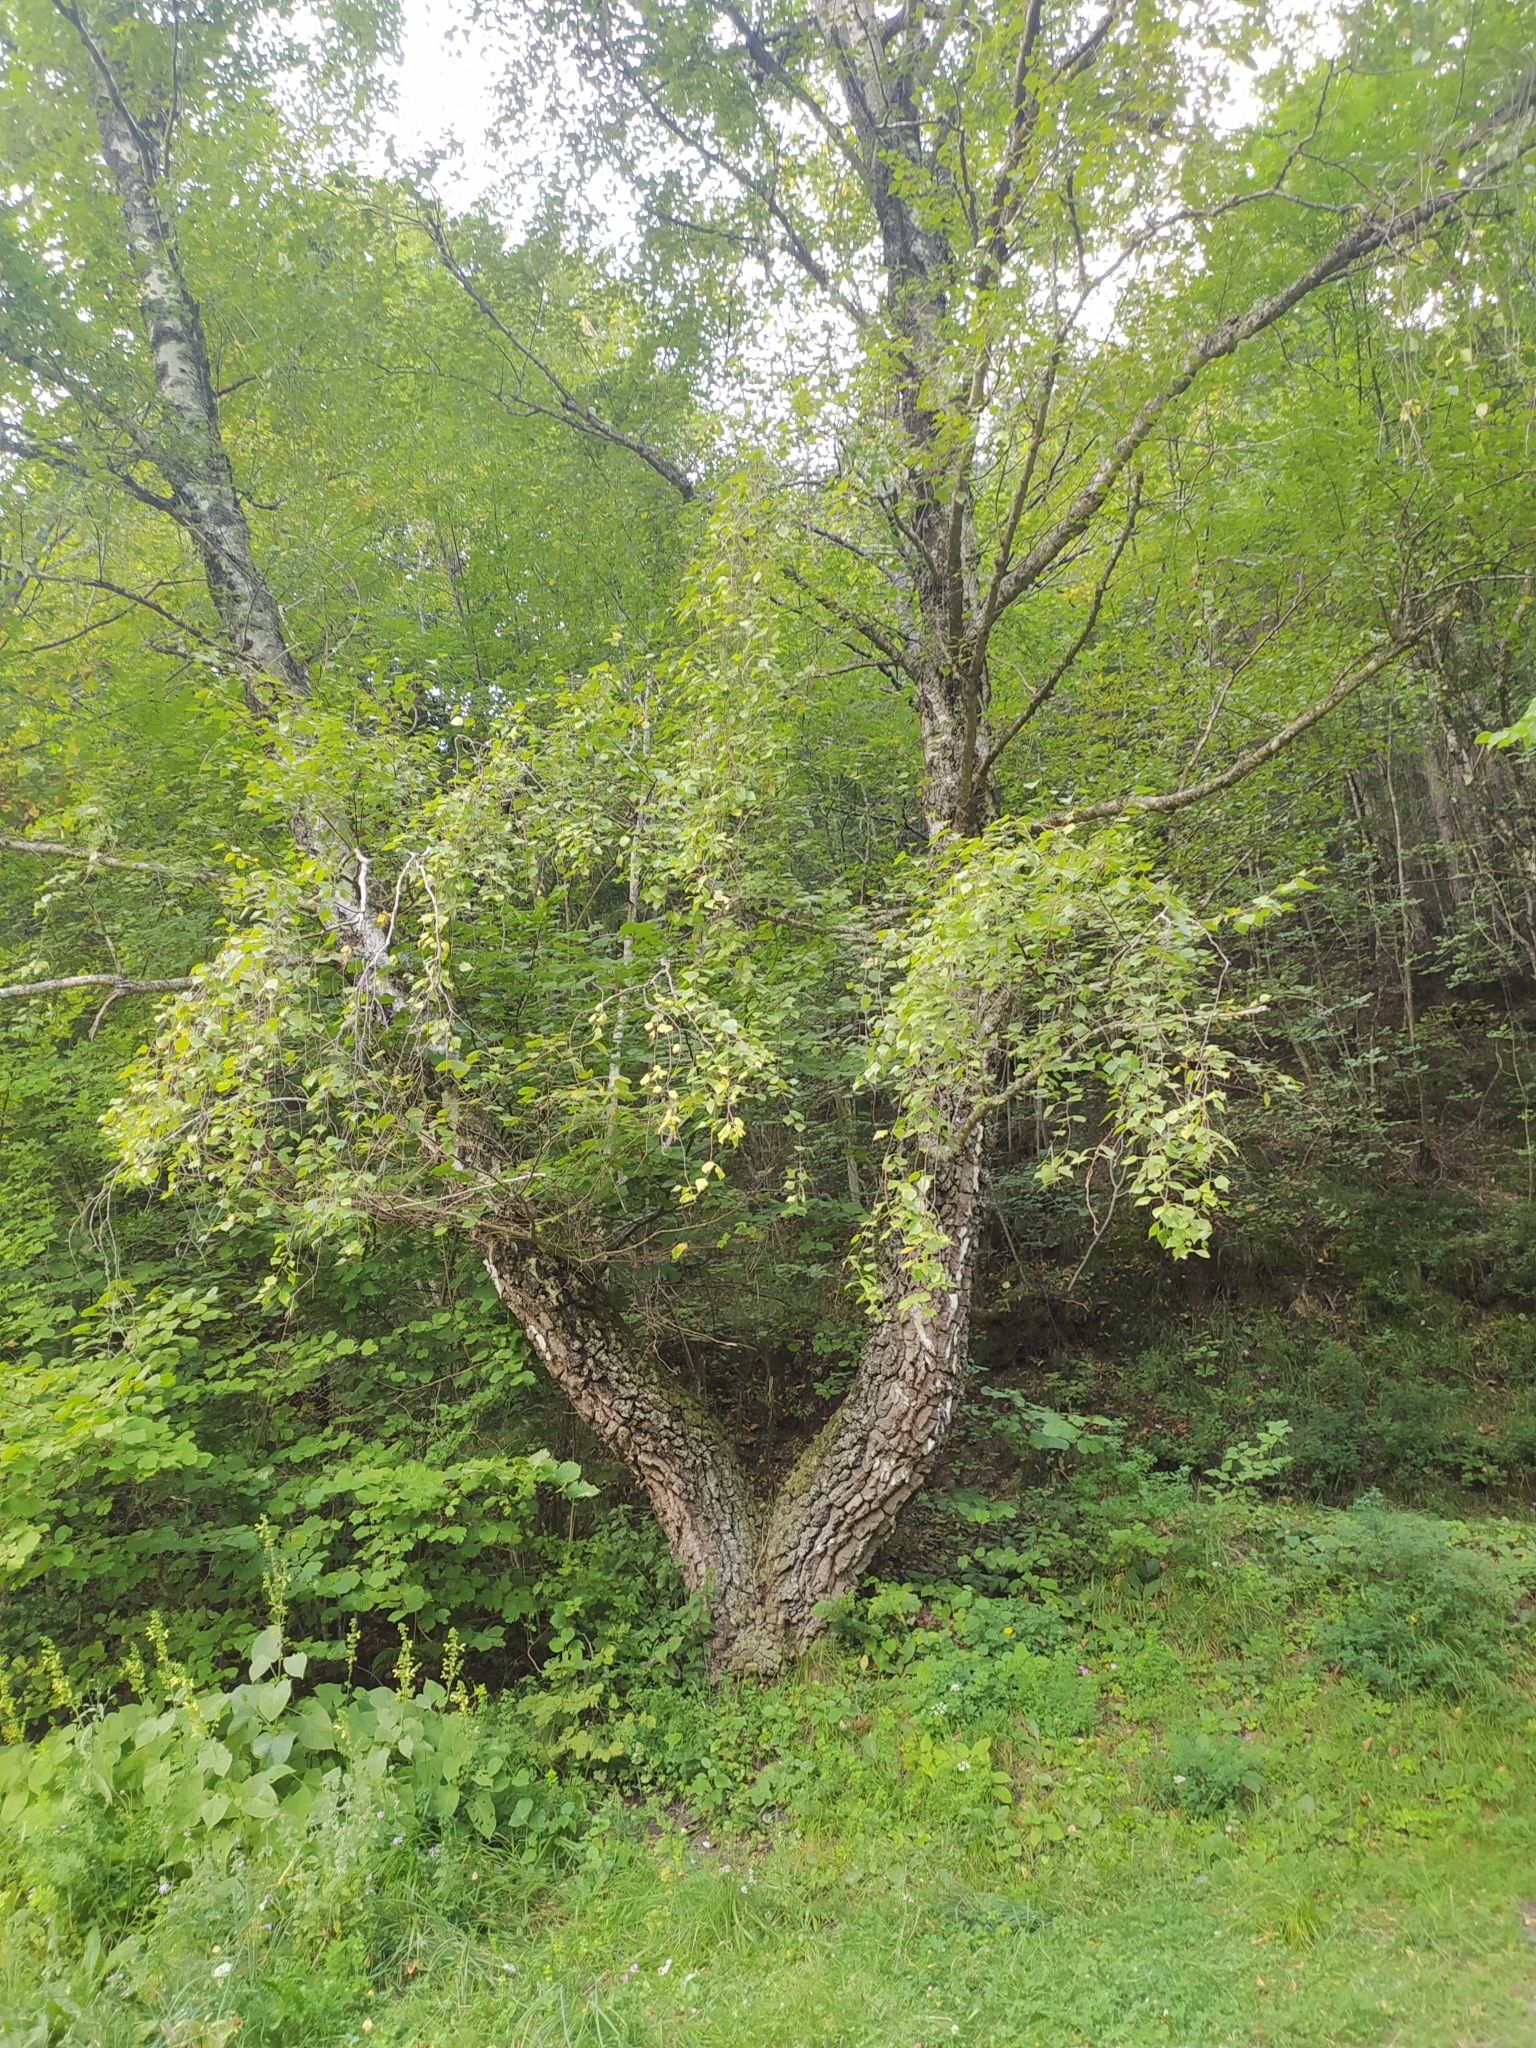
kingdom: Plantae
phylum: Tracheophyta
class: Magnoliopsida
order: Fagales
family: Betulaceae
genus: Betula
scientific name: Betula pendula
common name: Silver birch
